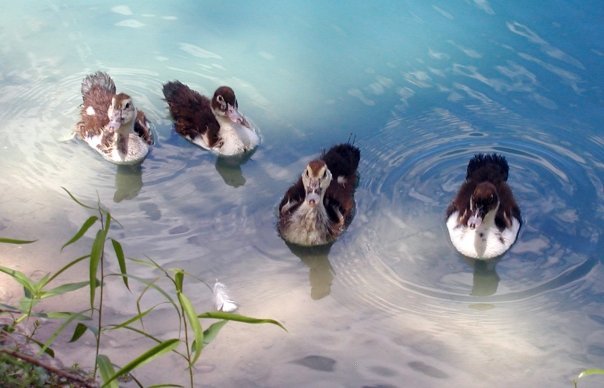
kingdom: Animalia
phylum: Chordata
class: Aves
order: Anseriformes
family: Anatidae
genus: Anas
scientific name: Anas platyrhynchos
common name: Mallard
